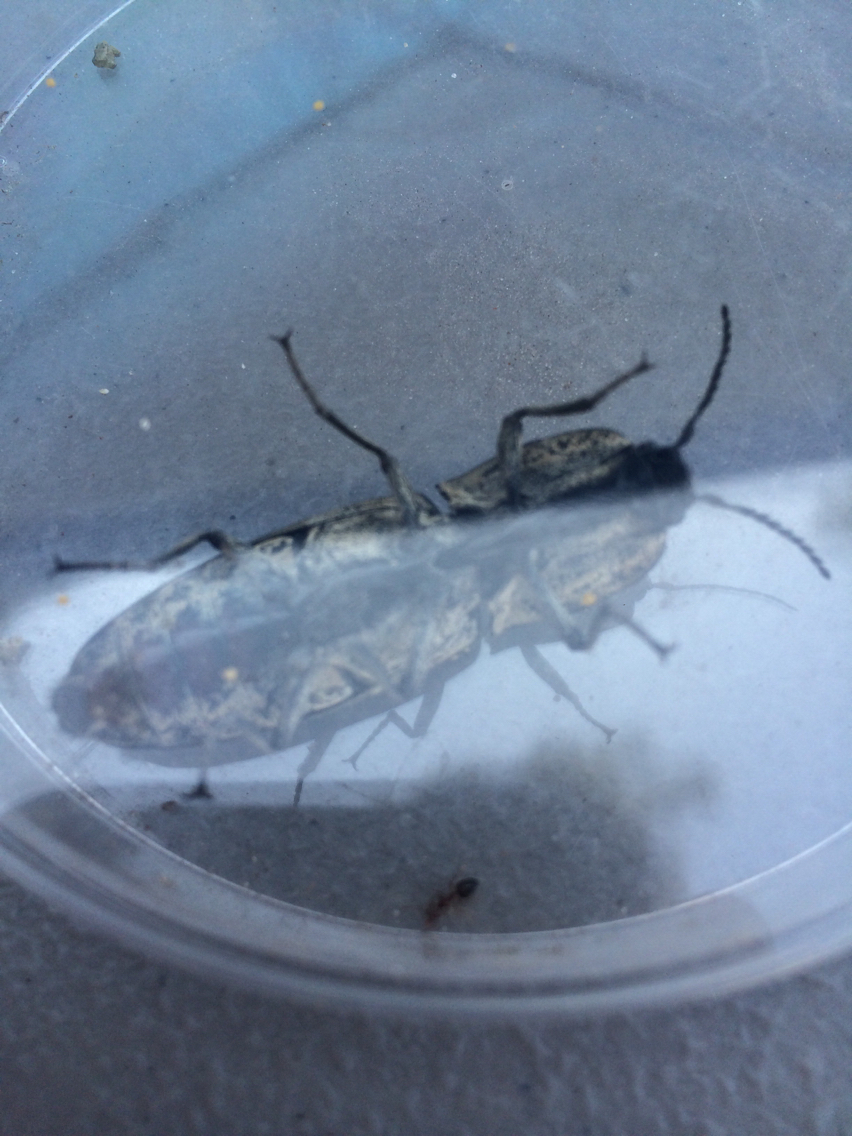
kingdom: Animalia
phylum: Arthropoda
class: Insecta
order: Coleoptera
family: Elateridae
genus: Alaus
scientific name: Alaus oculatus
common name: Eastern eyed click beetle
